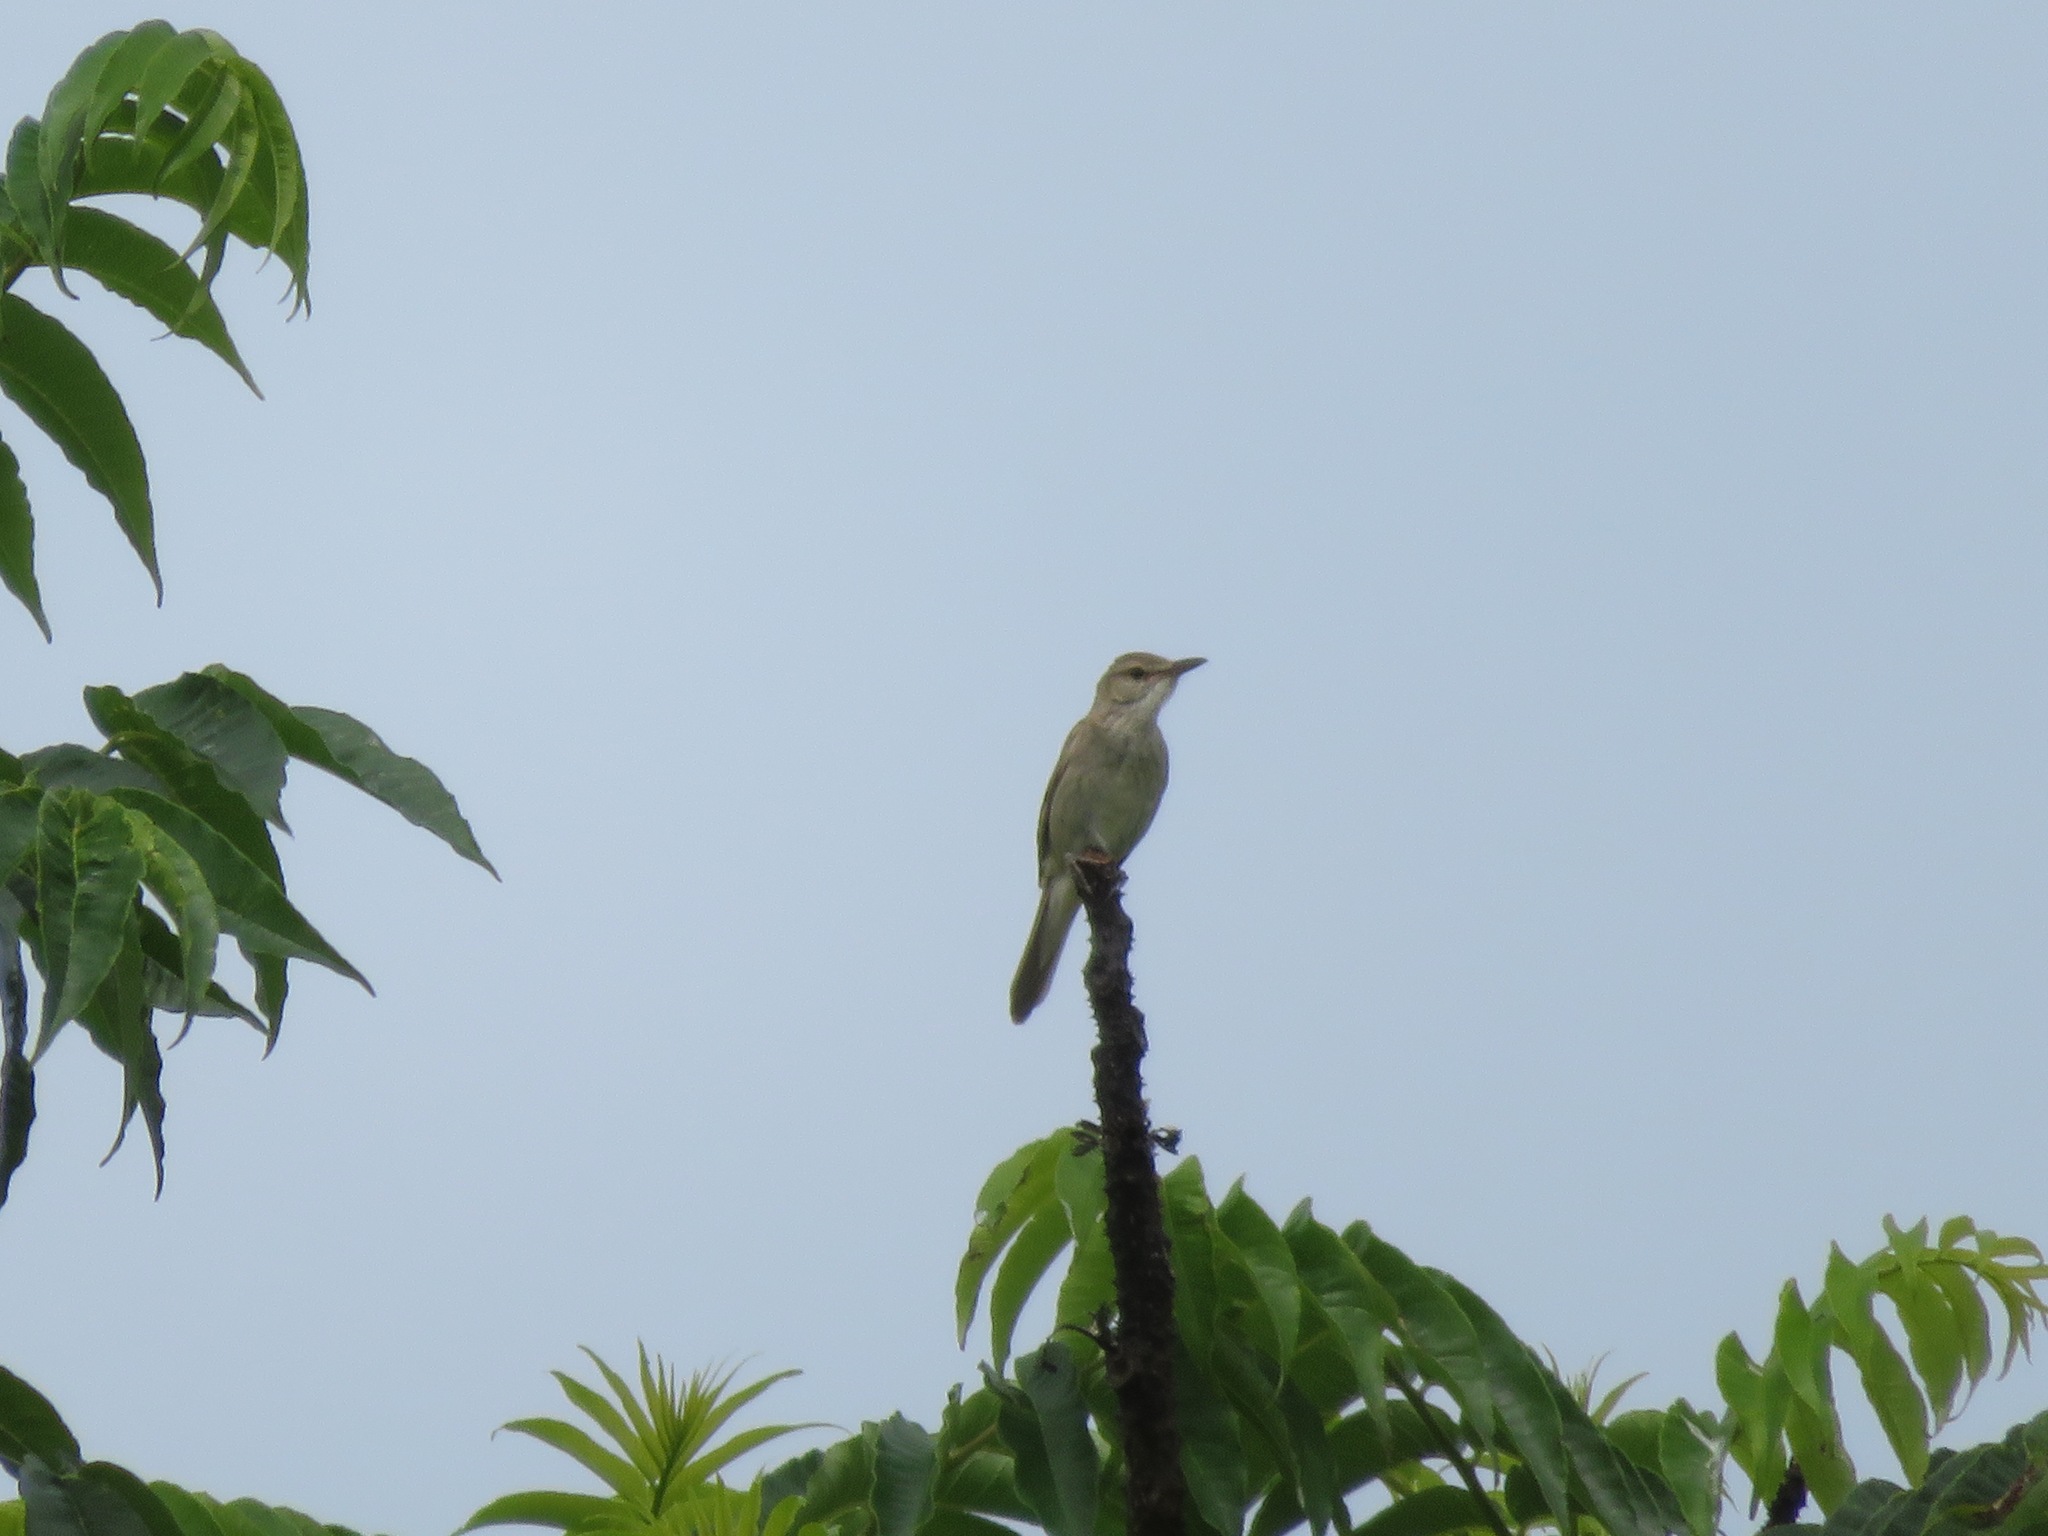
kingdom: Animalia
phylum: Chordata
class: Aves
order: Passeriformes
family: Acrocephalidae
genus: Acrocephalus
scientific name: Acrocephalus orientalis
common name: Oriental reed warbler
